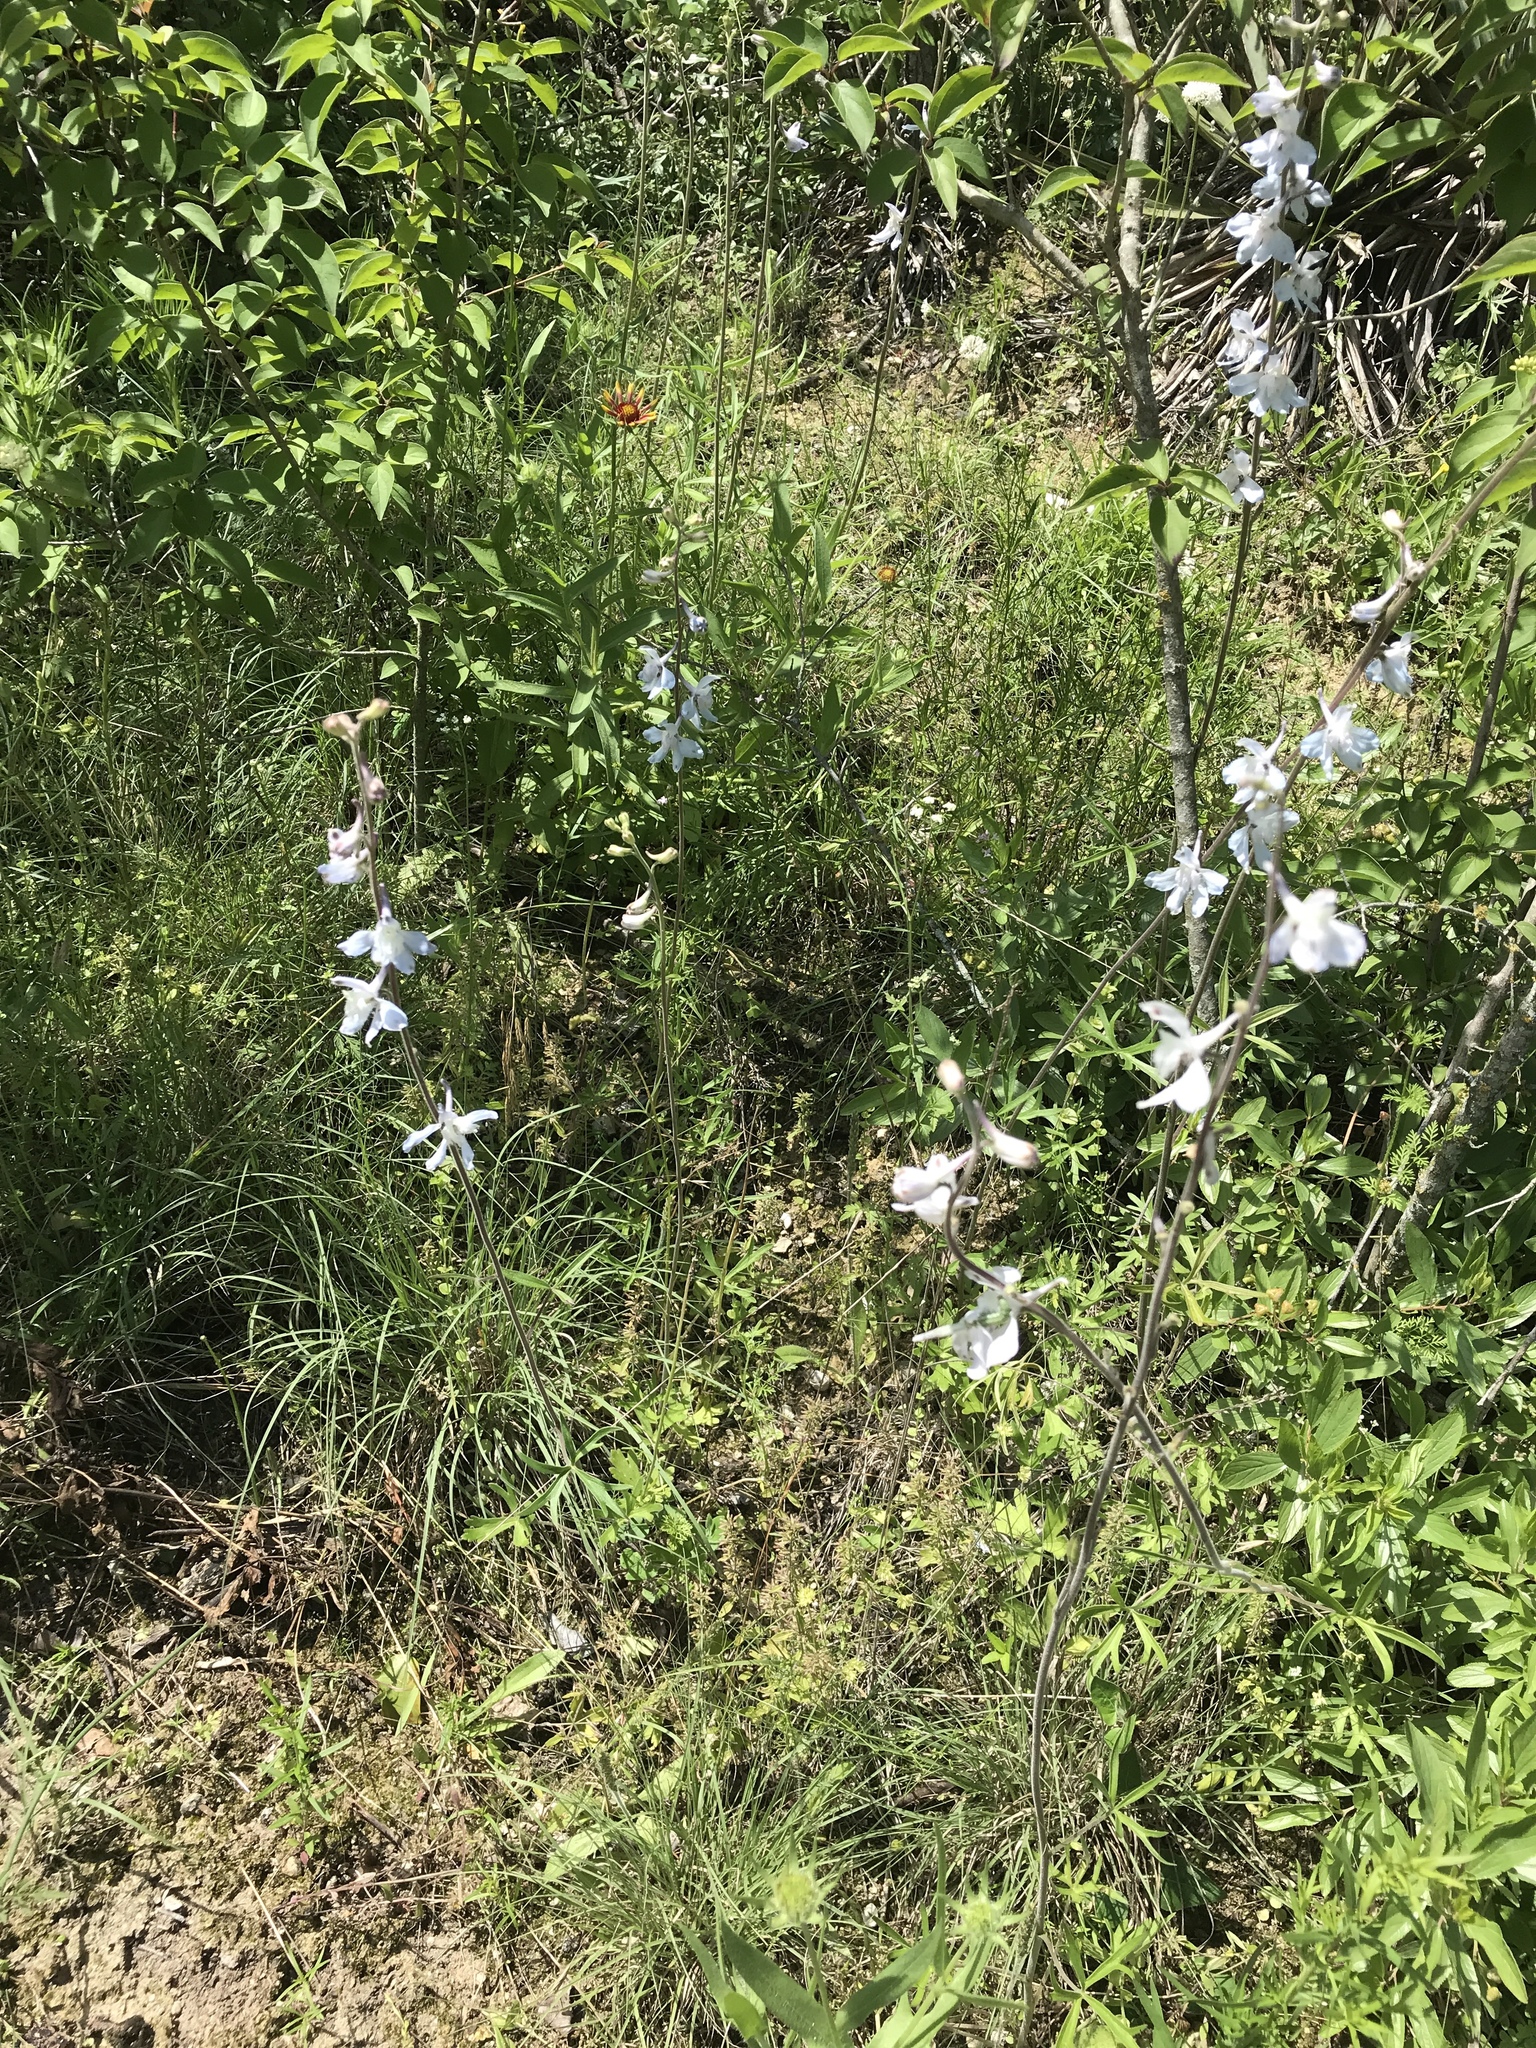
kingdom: Plantae
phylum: Tracheophyta
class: Magnoliopsida
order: Ranunculales
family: Ranunculaceae
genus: Delphinium
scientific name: Delphinium carolinianum
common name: Carolina larkspur
